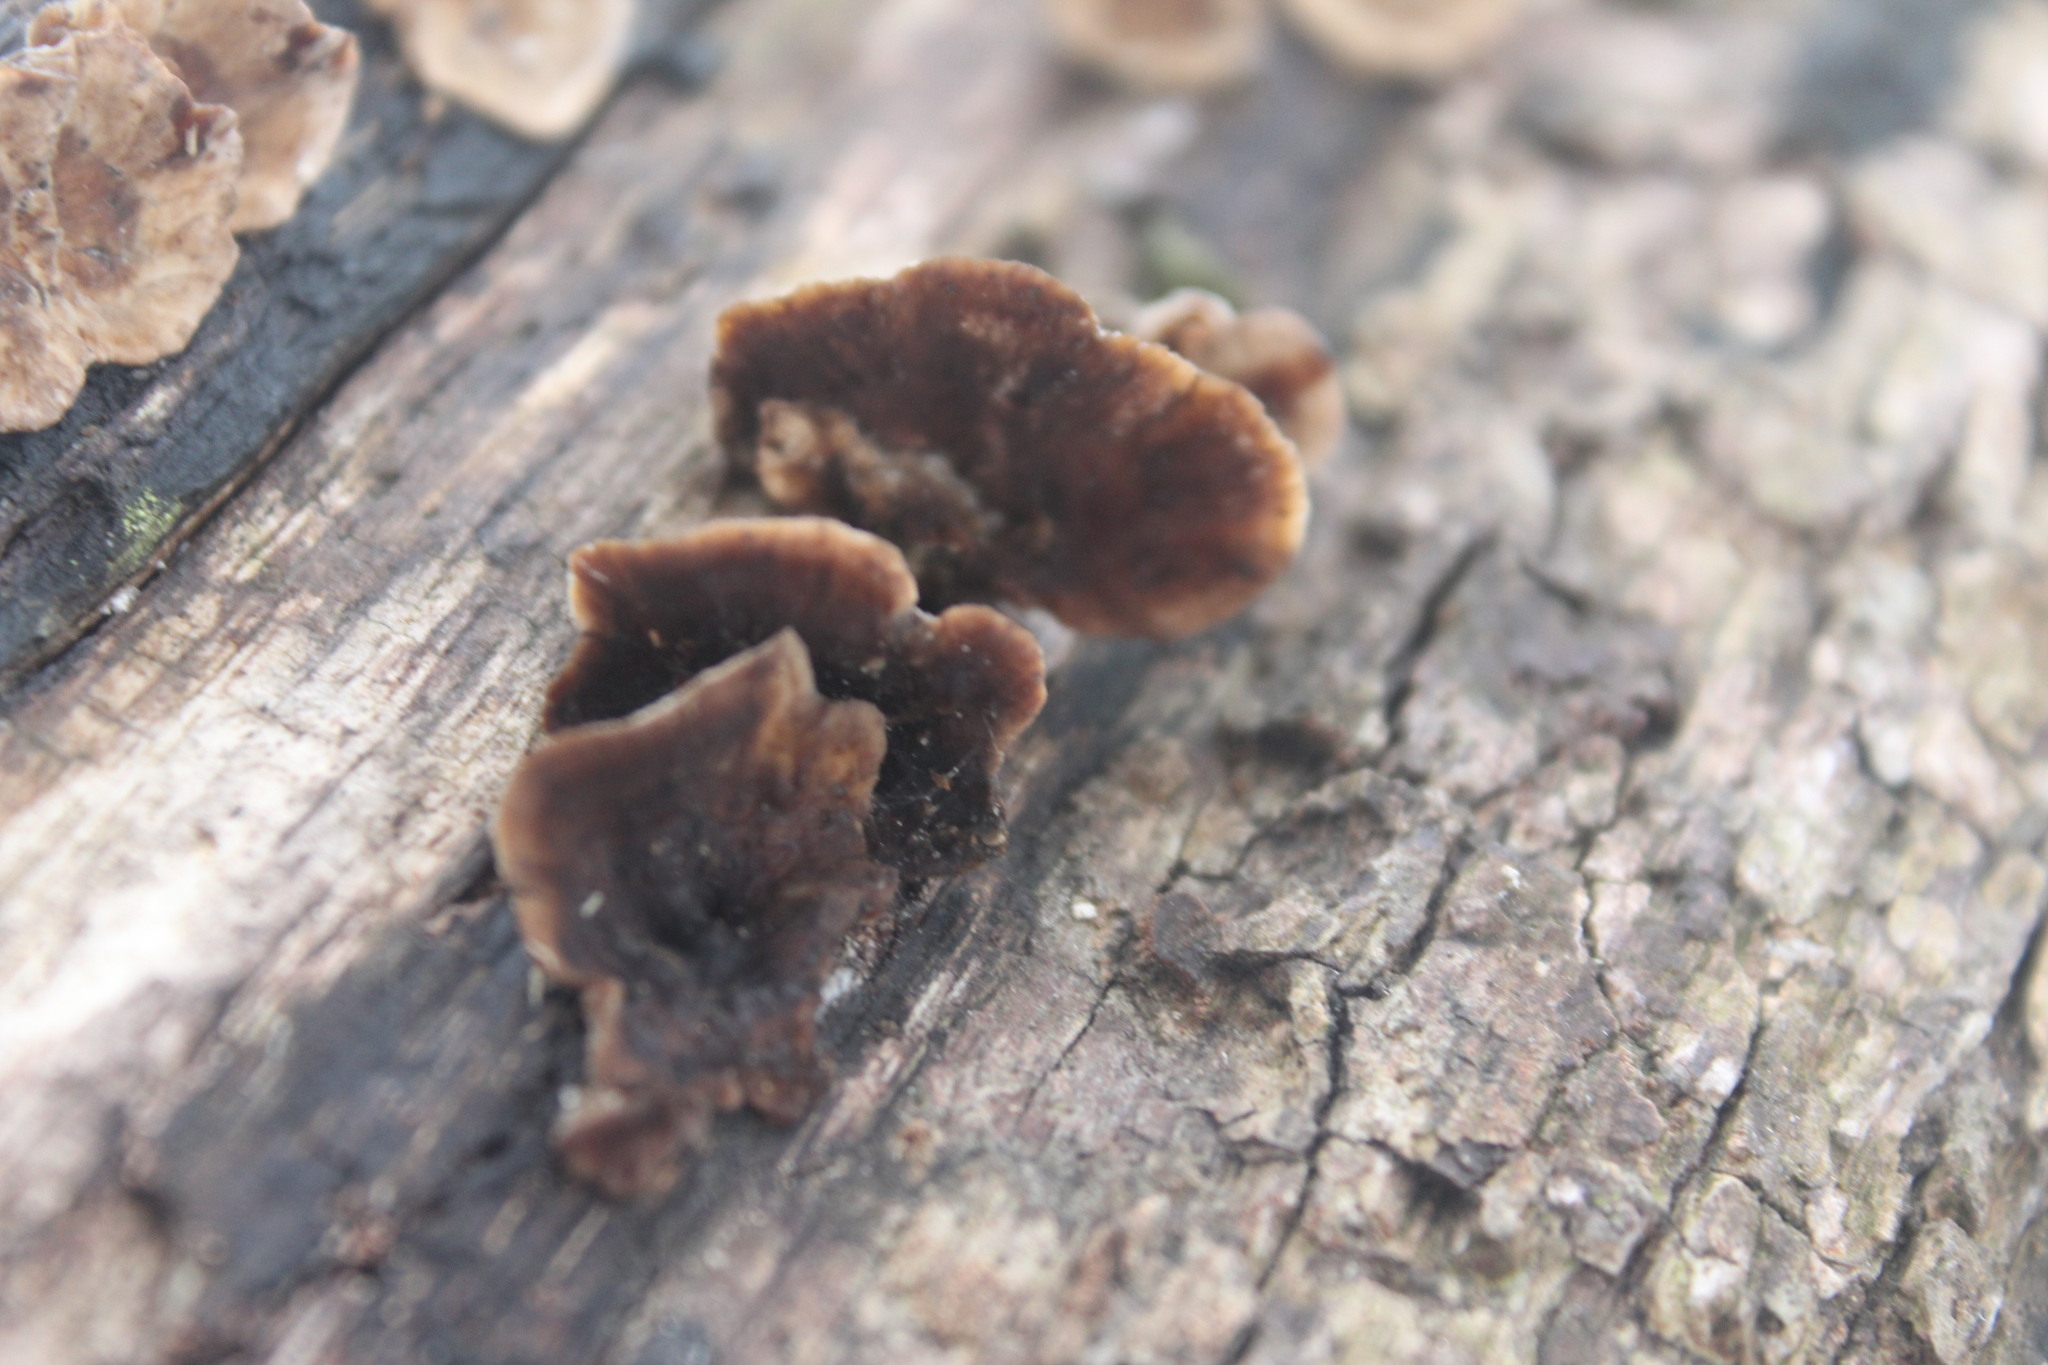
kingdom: Fungi
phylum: Basidiomycota
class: Agaricomycetes
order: Polyporales
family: Polyporaceae
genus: Trametes
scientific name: Trametes versicolor
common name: Turkeytail
